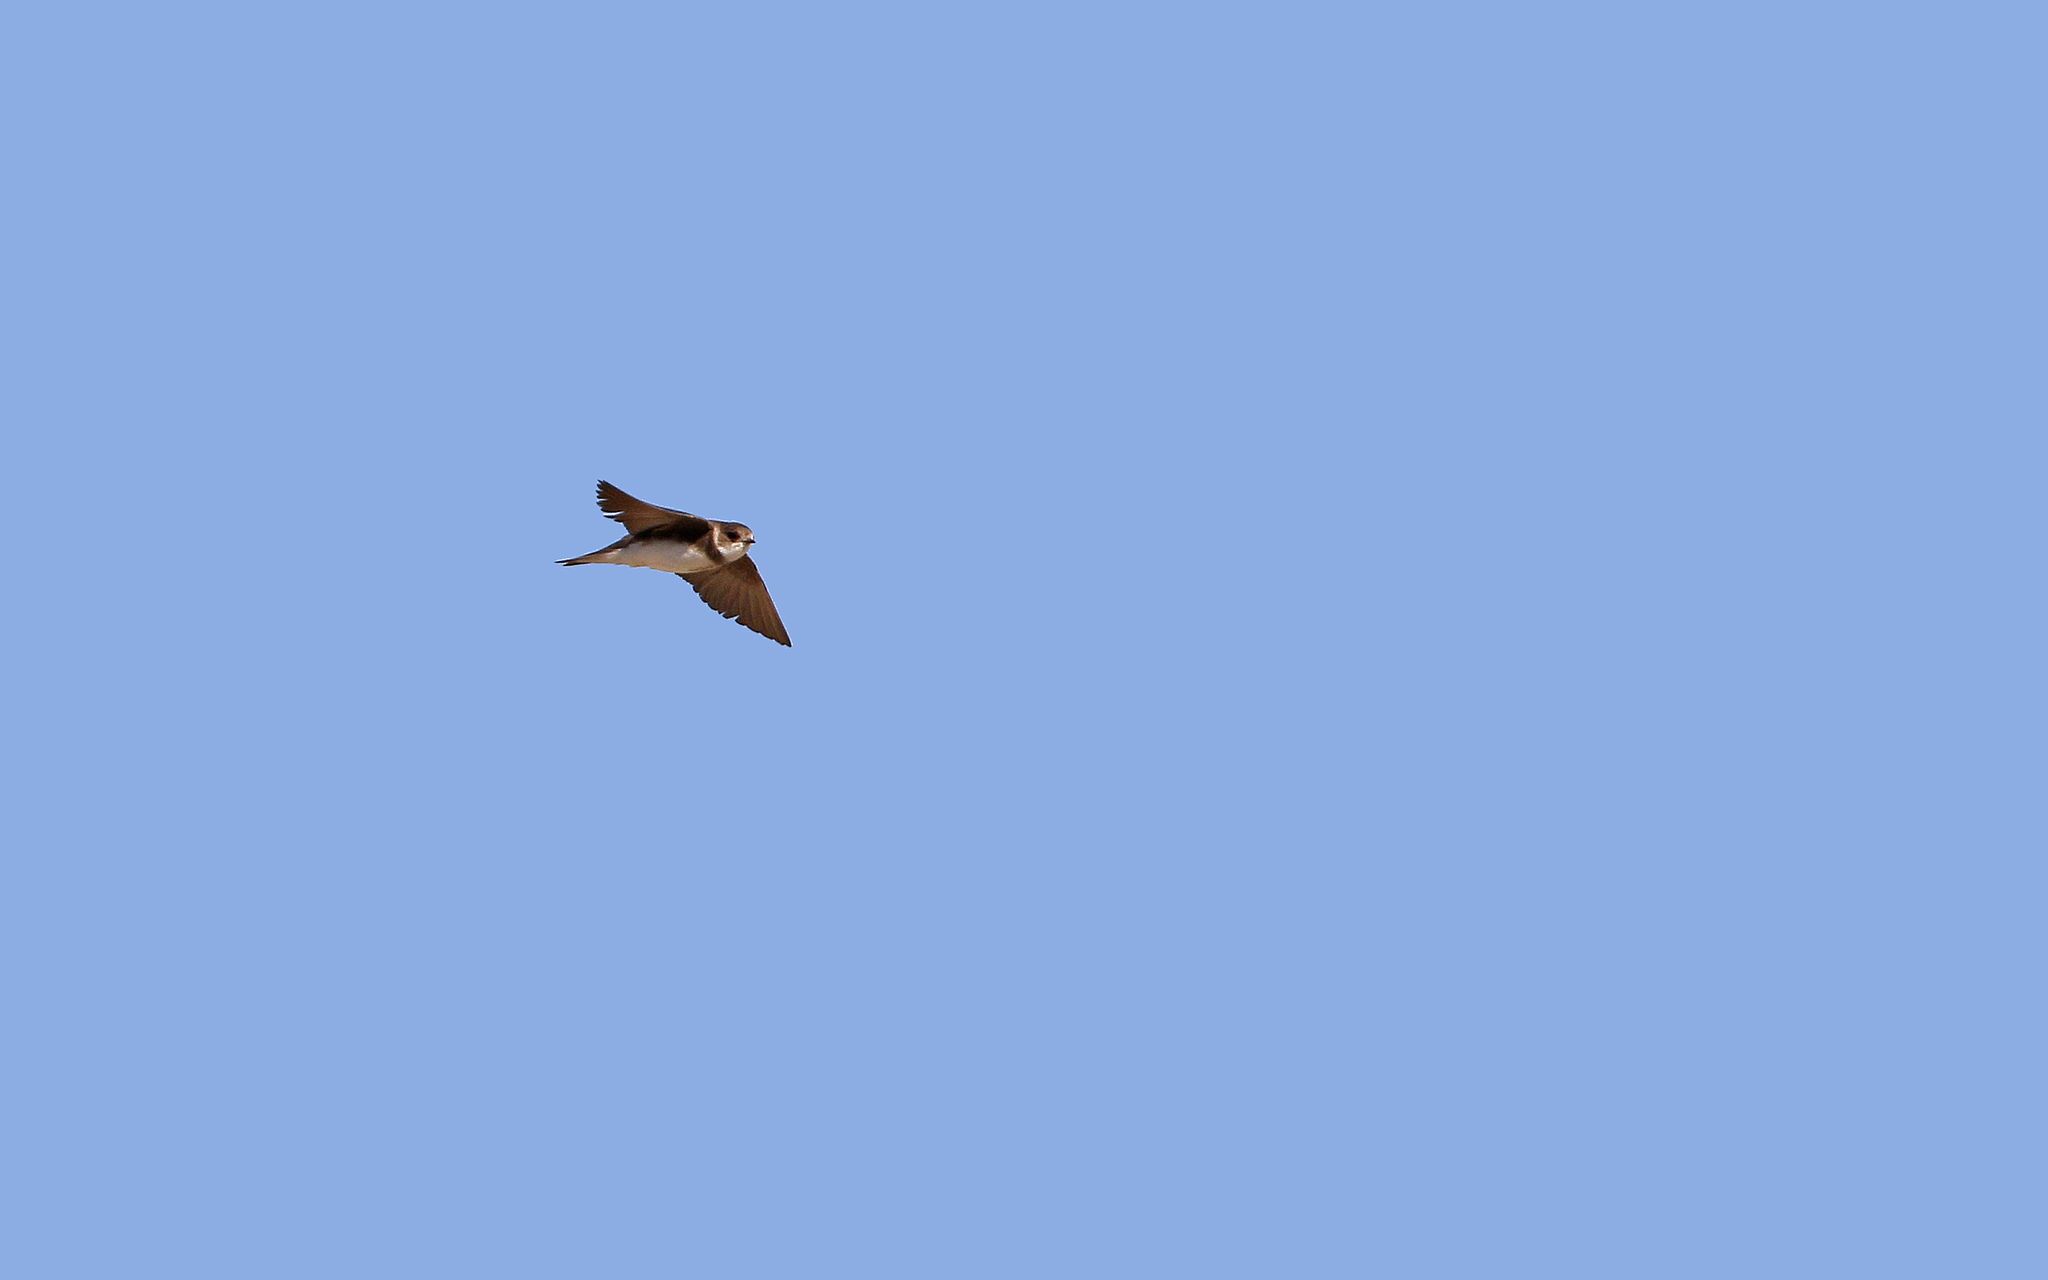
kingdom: Animalia
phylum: Chordata
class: Aves
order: Passeriformes
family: Hirundinidae
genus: Riparia
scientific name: Riparia riparia
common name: Sand martin
